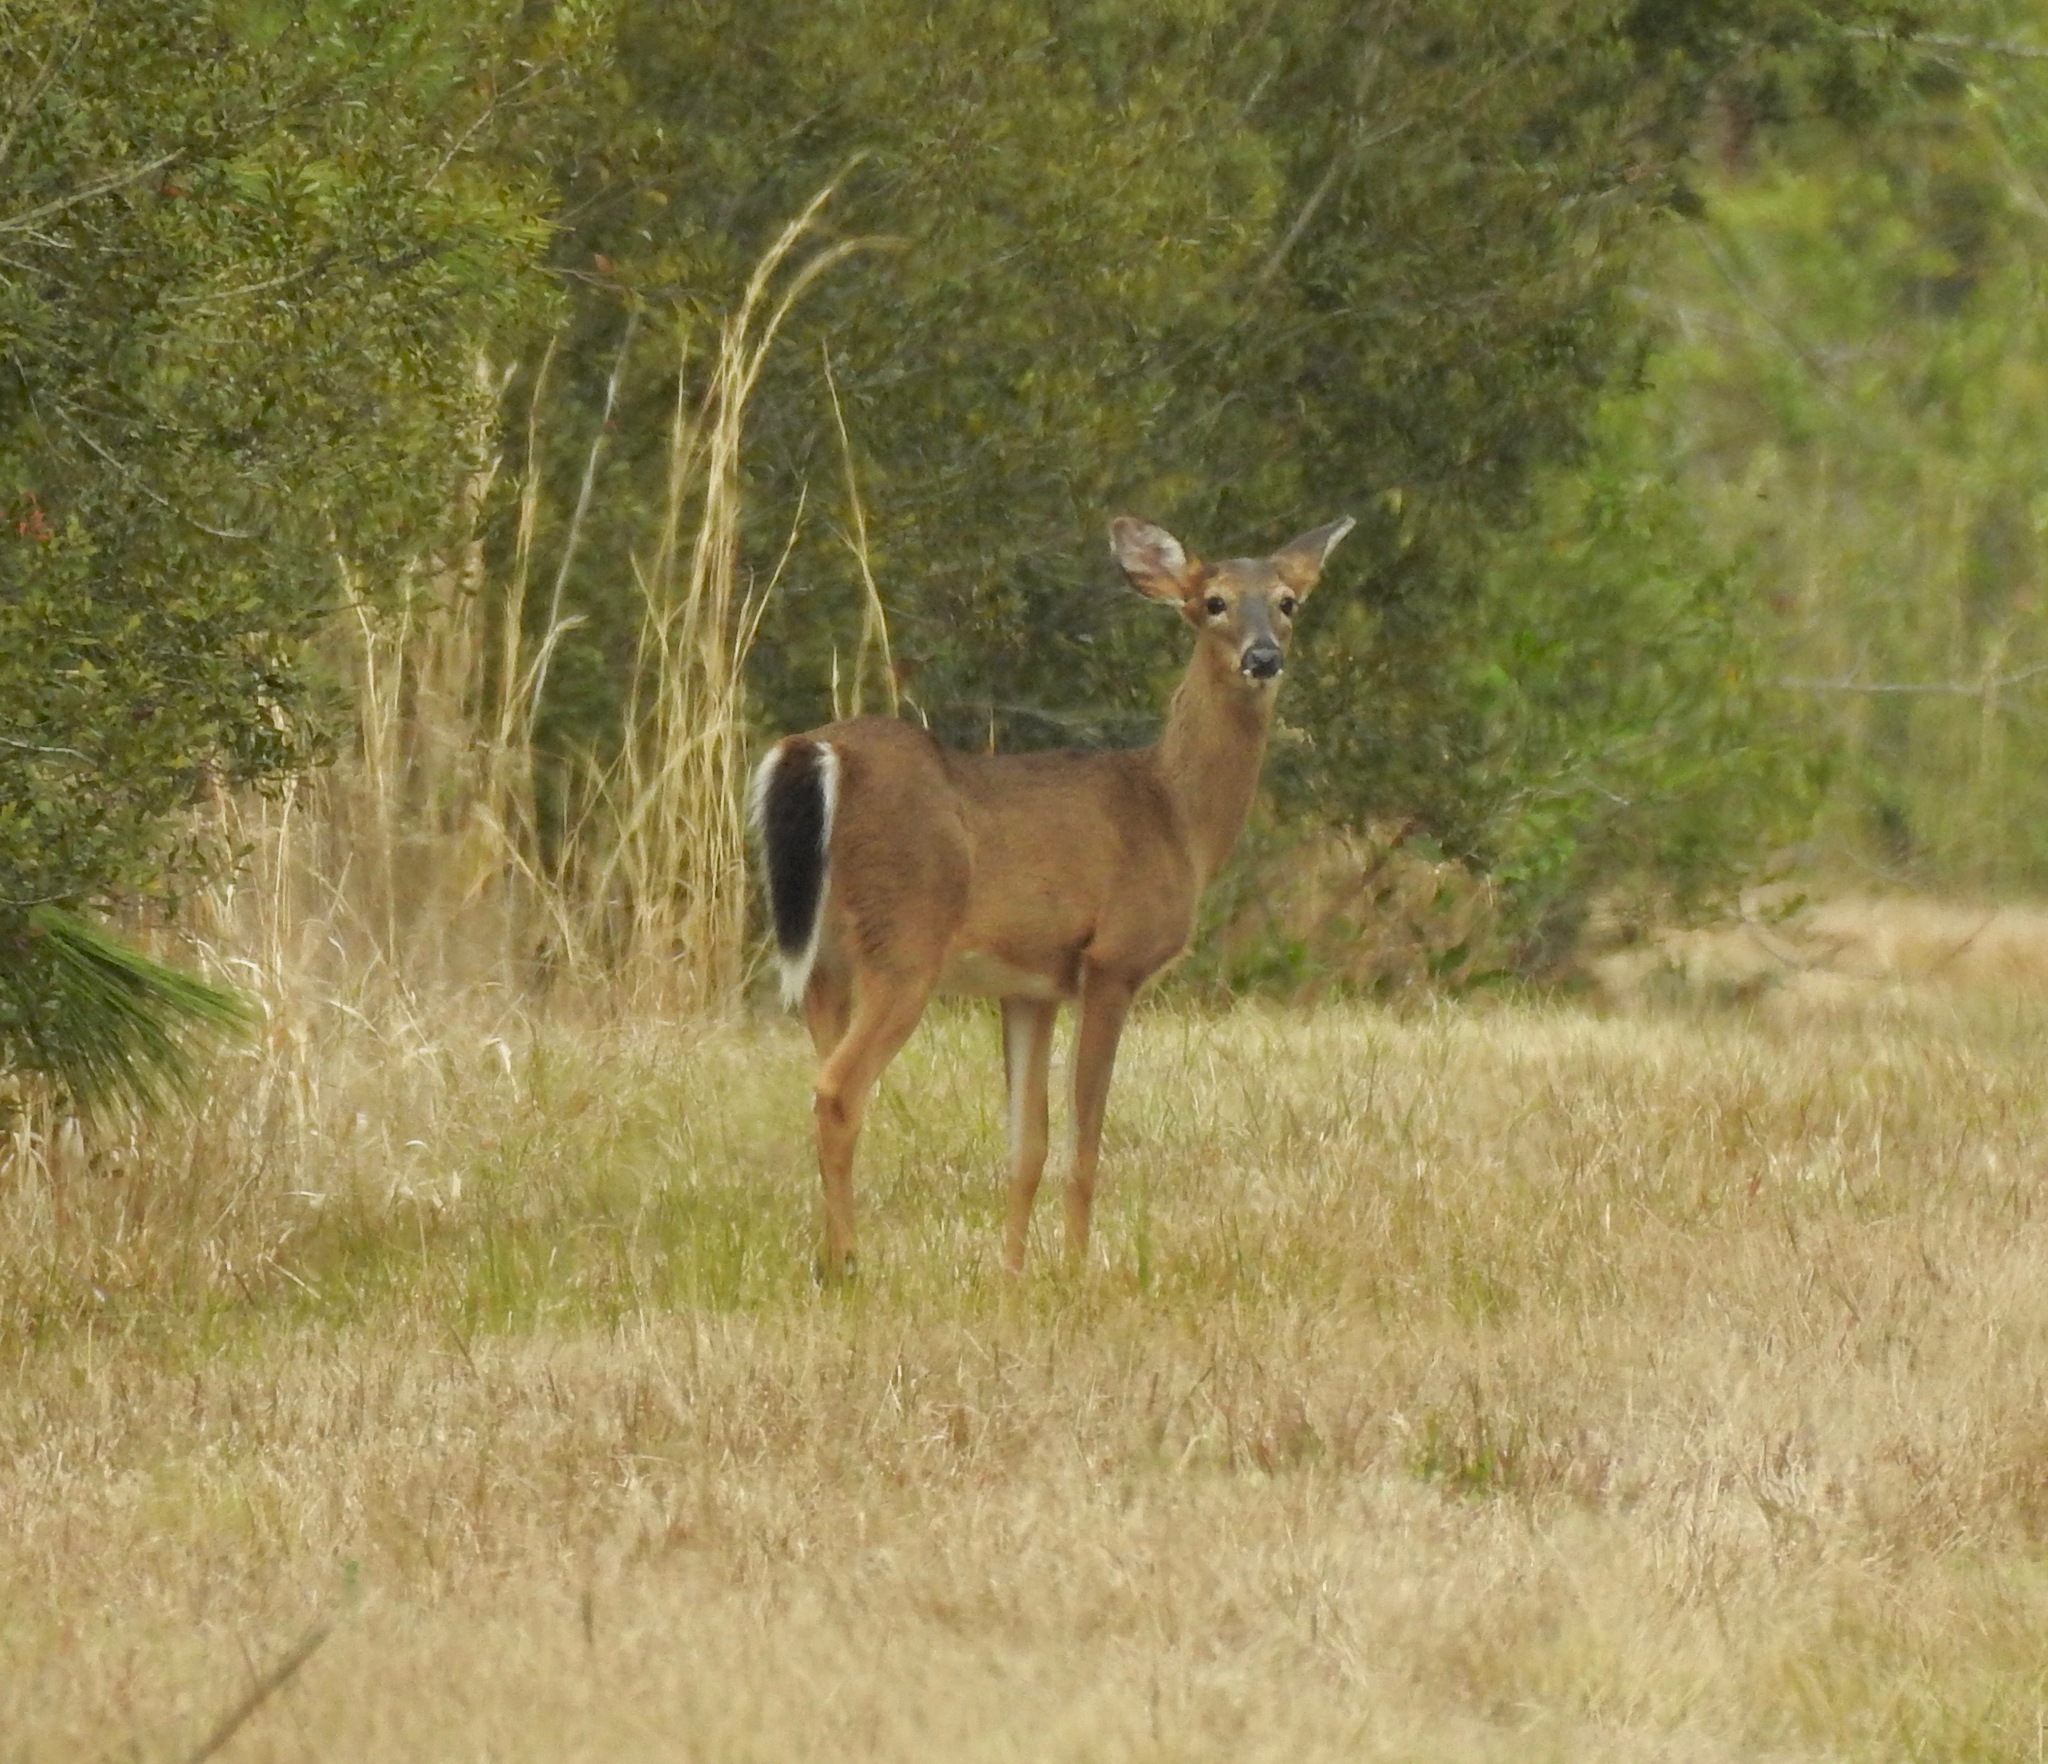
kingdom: Animalia
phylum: Chordata
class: Mammalia
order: Artiodactyla
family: Cervidae
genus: Odocoileus
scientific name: Odocoileus virginianus
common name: White-tailed deer
